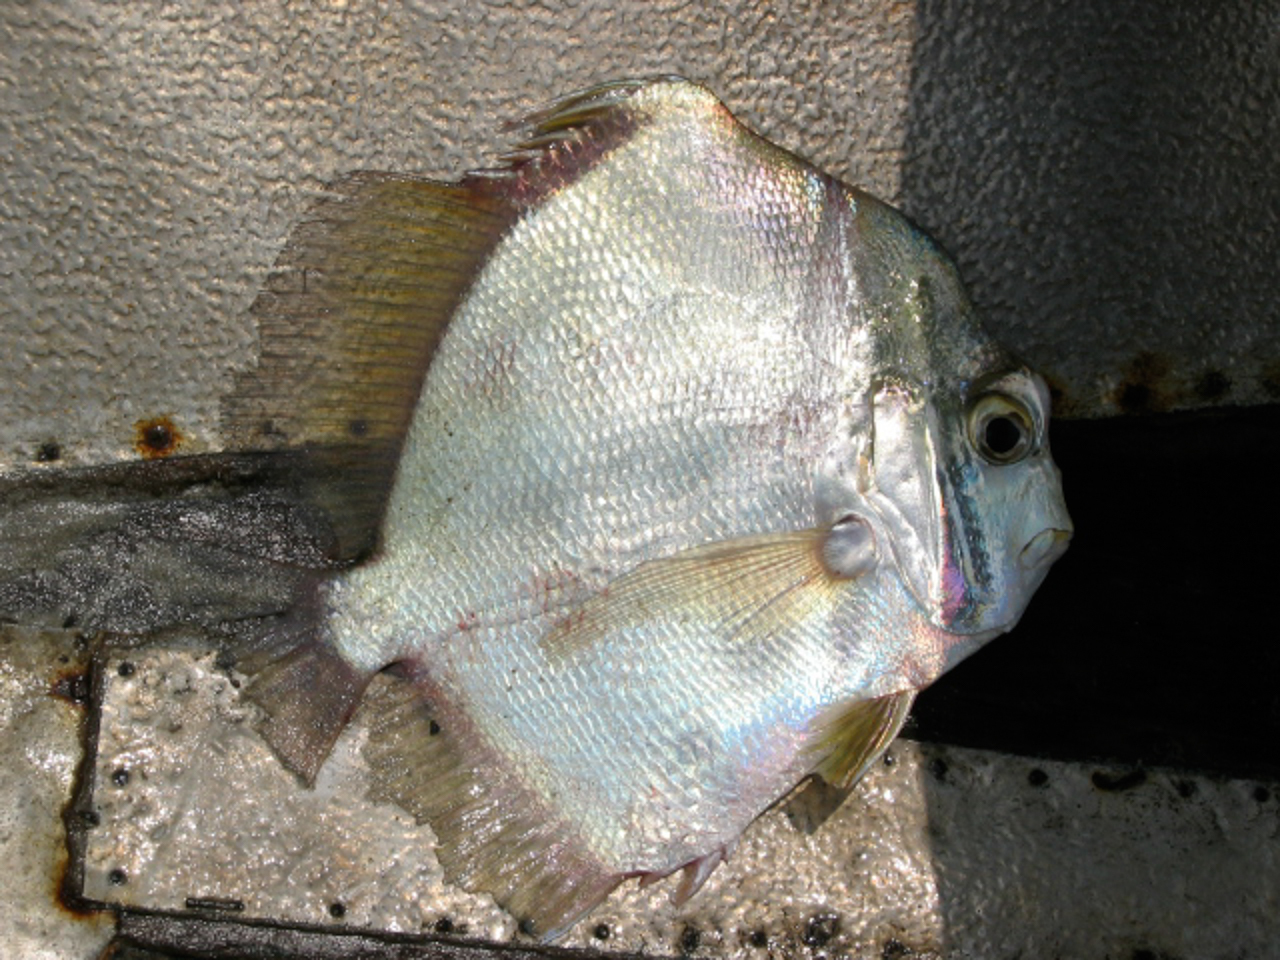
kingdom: Animalia
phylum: Chordata
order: Perciformes
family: Drepaneidae
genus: Drepane
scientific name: Drepane africana
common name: African sicklefish
